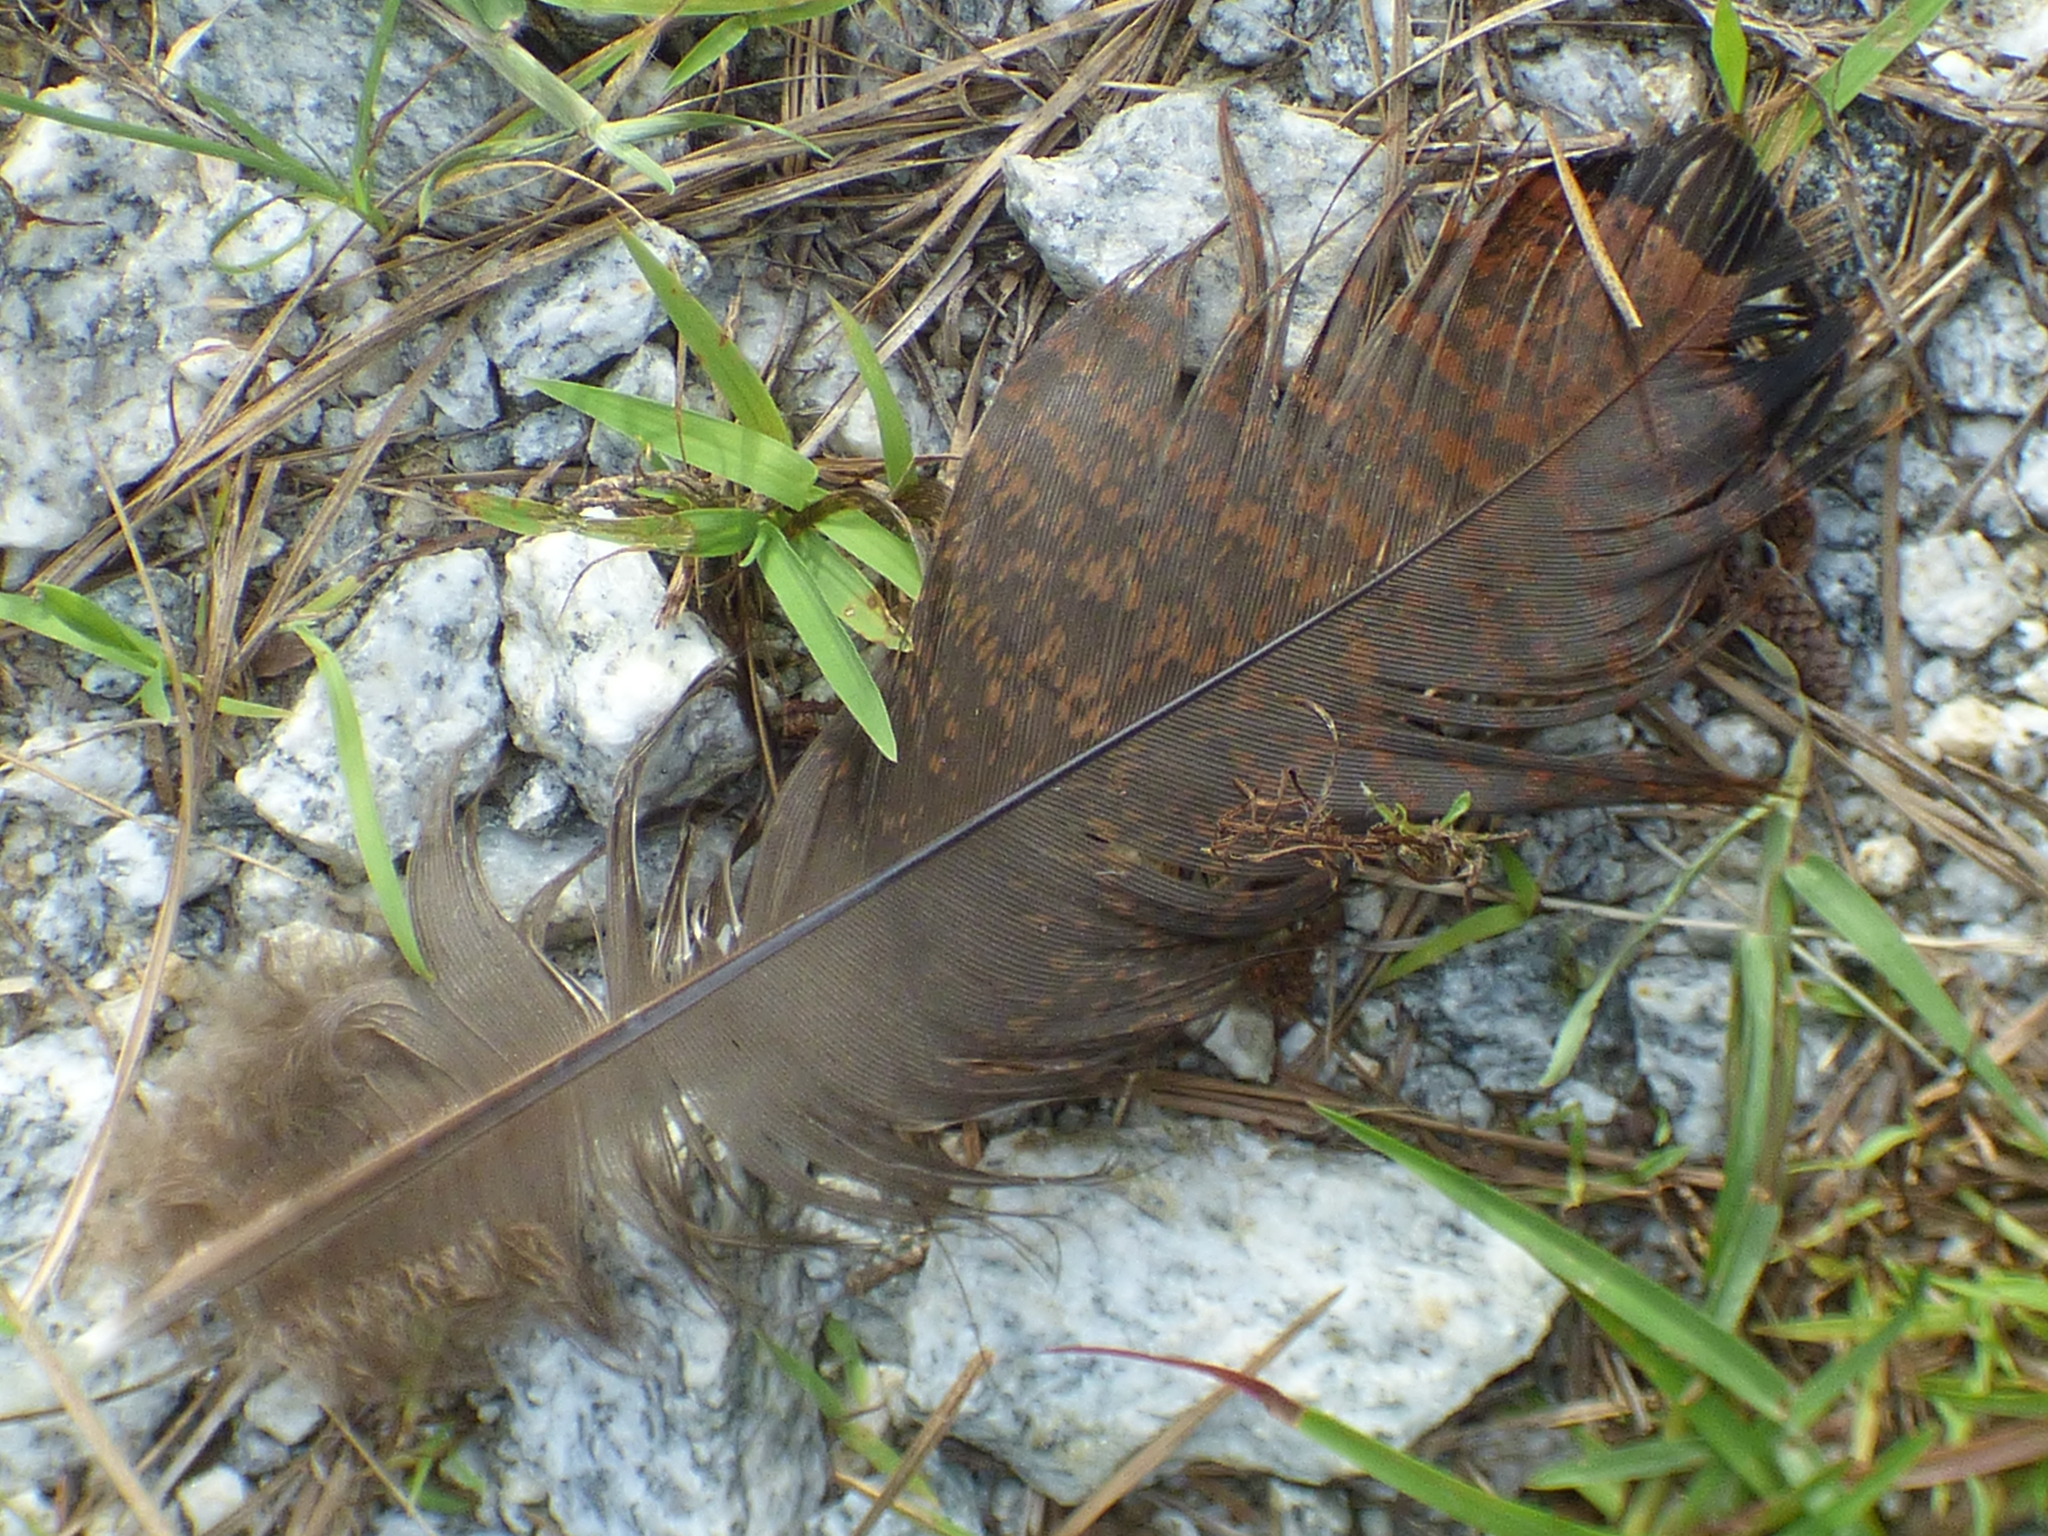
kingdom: Animalia
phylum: Chordata
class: Aves
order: Galliformes
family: Phasianidae
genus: Meleagris
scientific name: Meleagris gallopavo
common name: Wild turkey
